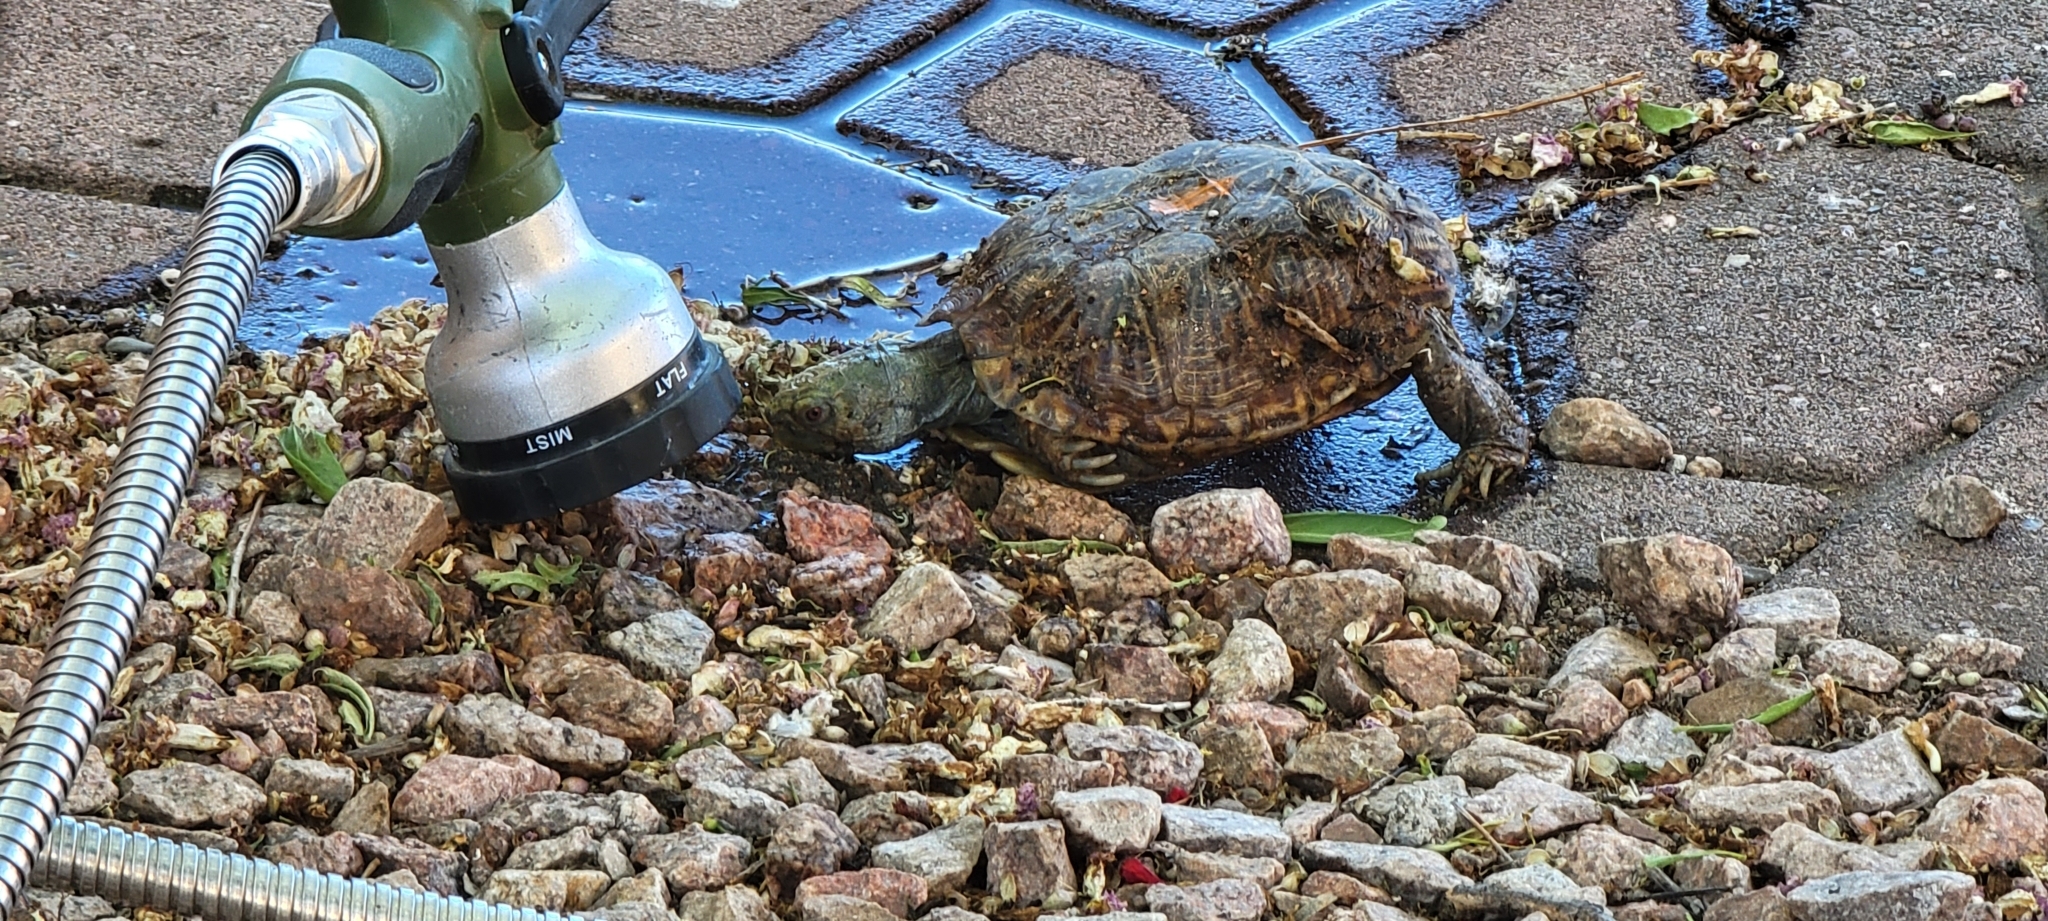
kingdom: Animalia
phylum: Chordata
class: Testudines
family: Emydidae
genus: Terrapene
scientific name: Terrapene ornata
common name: Western box turtle
